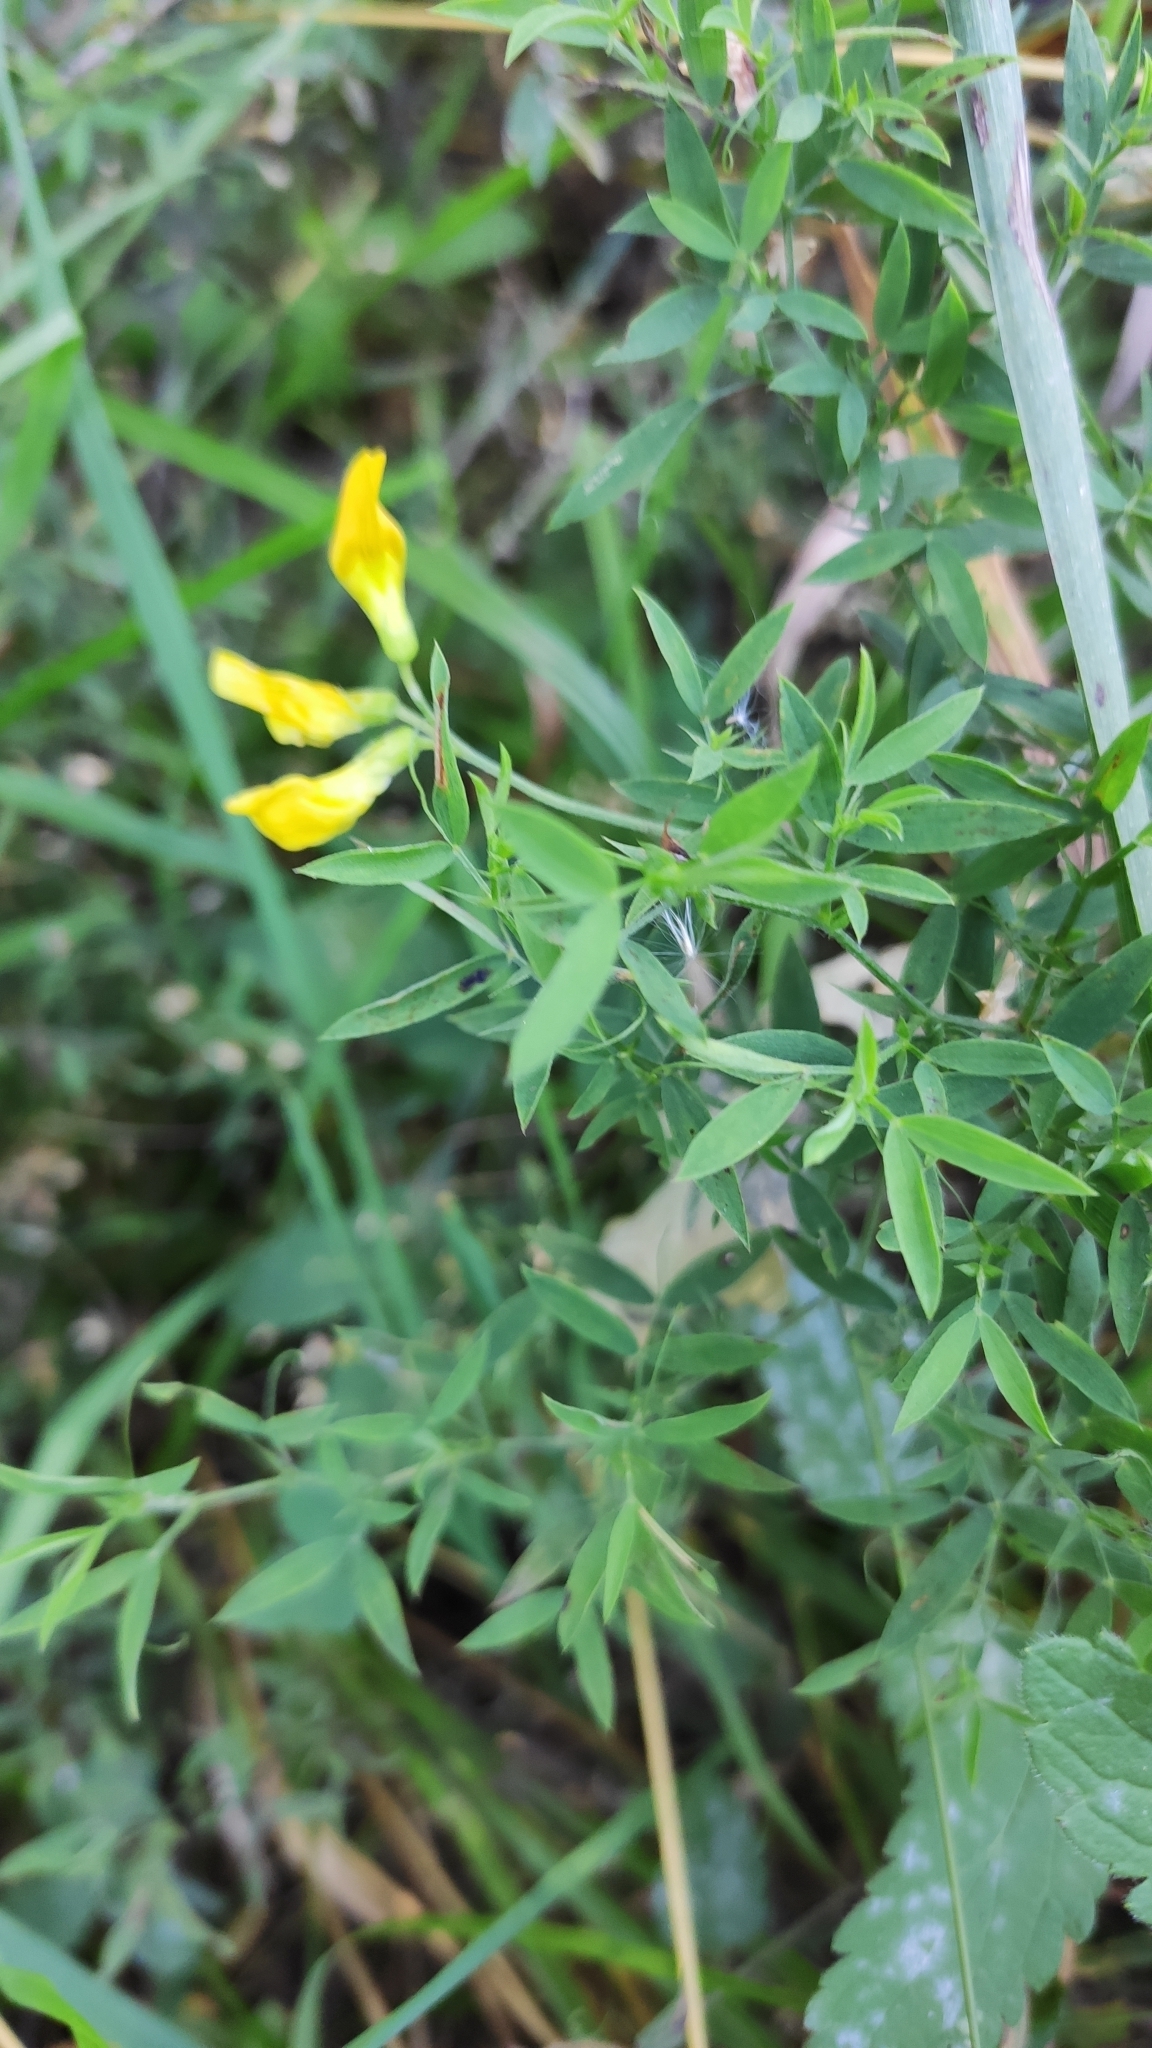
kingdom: Plantae
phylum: Tracheophyta
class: Magnoliopsida
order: Fabales
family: Fabaceae
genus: Lathyrus
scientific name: Lathyrus pratensis
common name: Meadow vetchling
